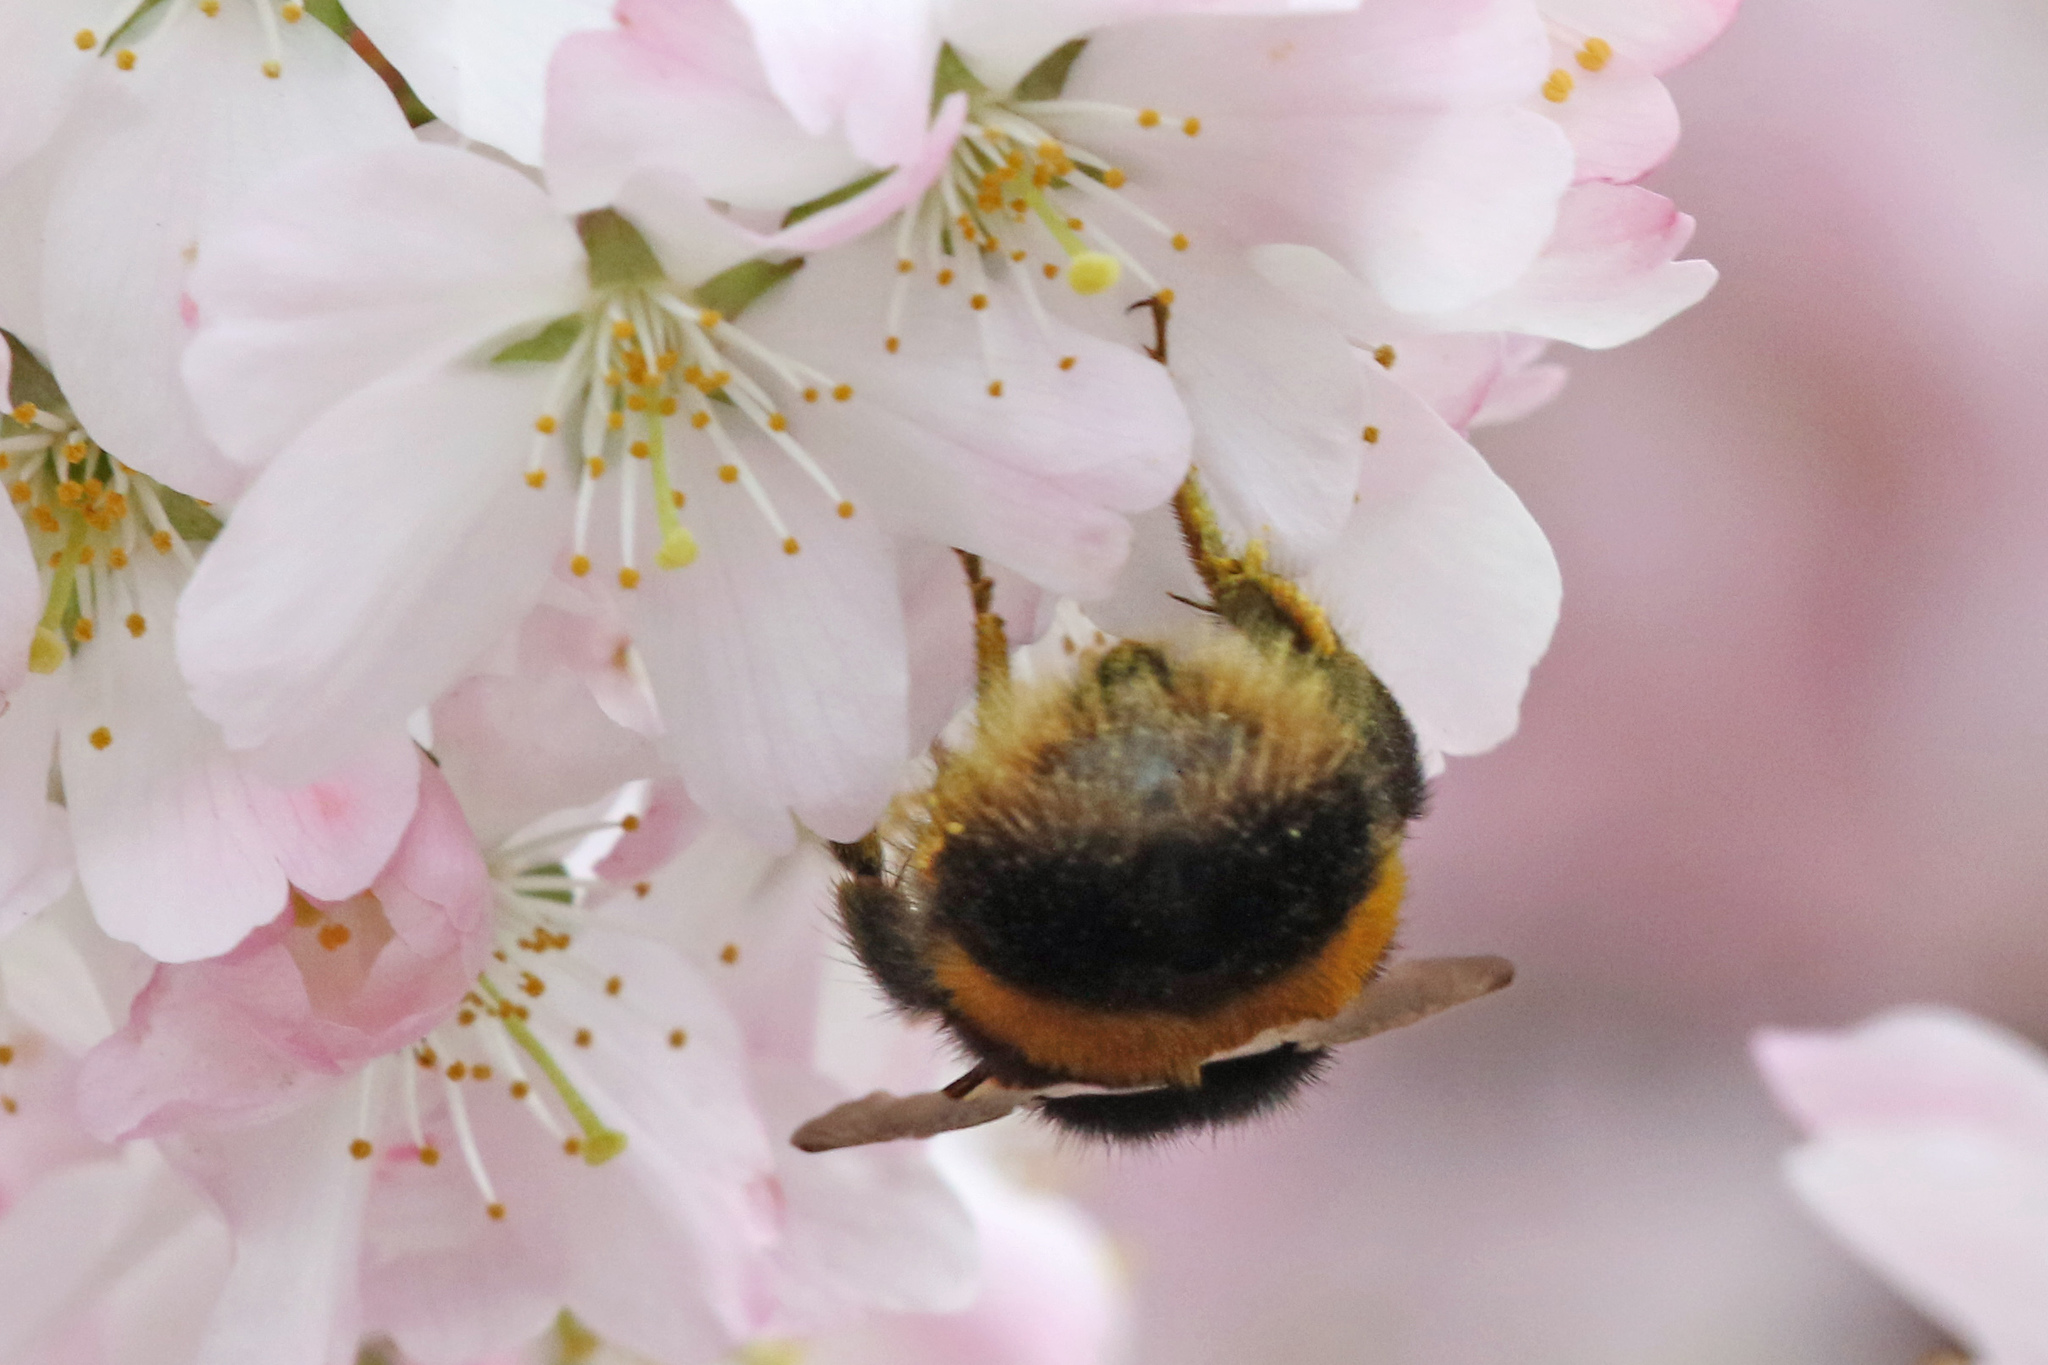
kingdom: Animalia
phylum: Arthropoda
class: Insecta
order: Hymenoptera
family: Apidae
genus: Bombus
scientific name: Bombus terrestris
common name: Buff-tailed bumblebee
